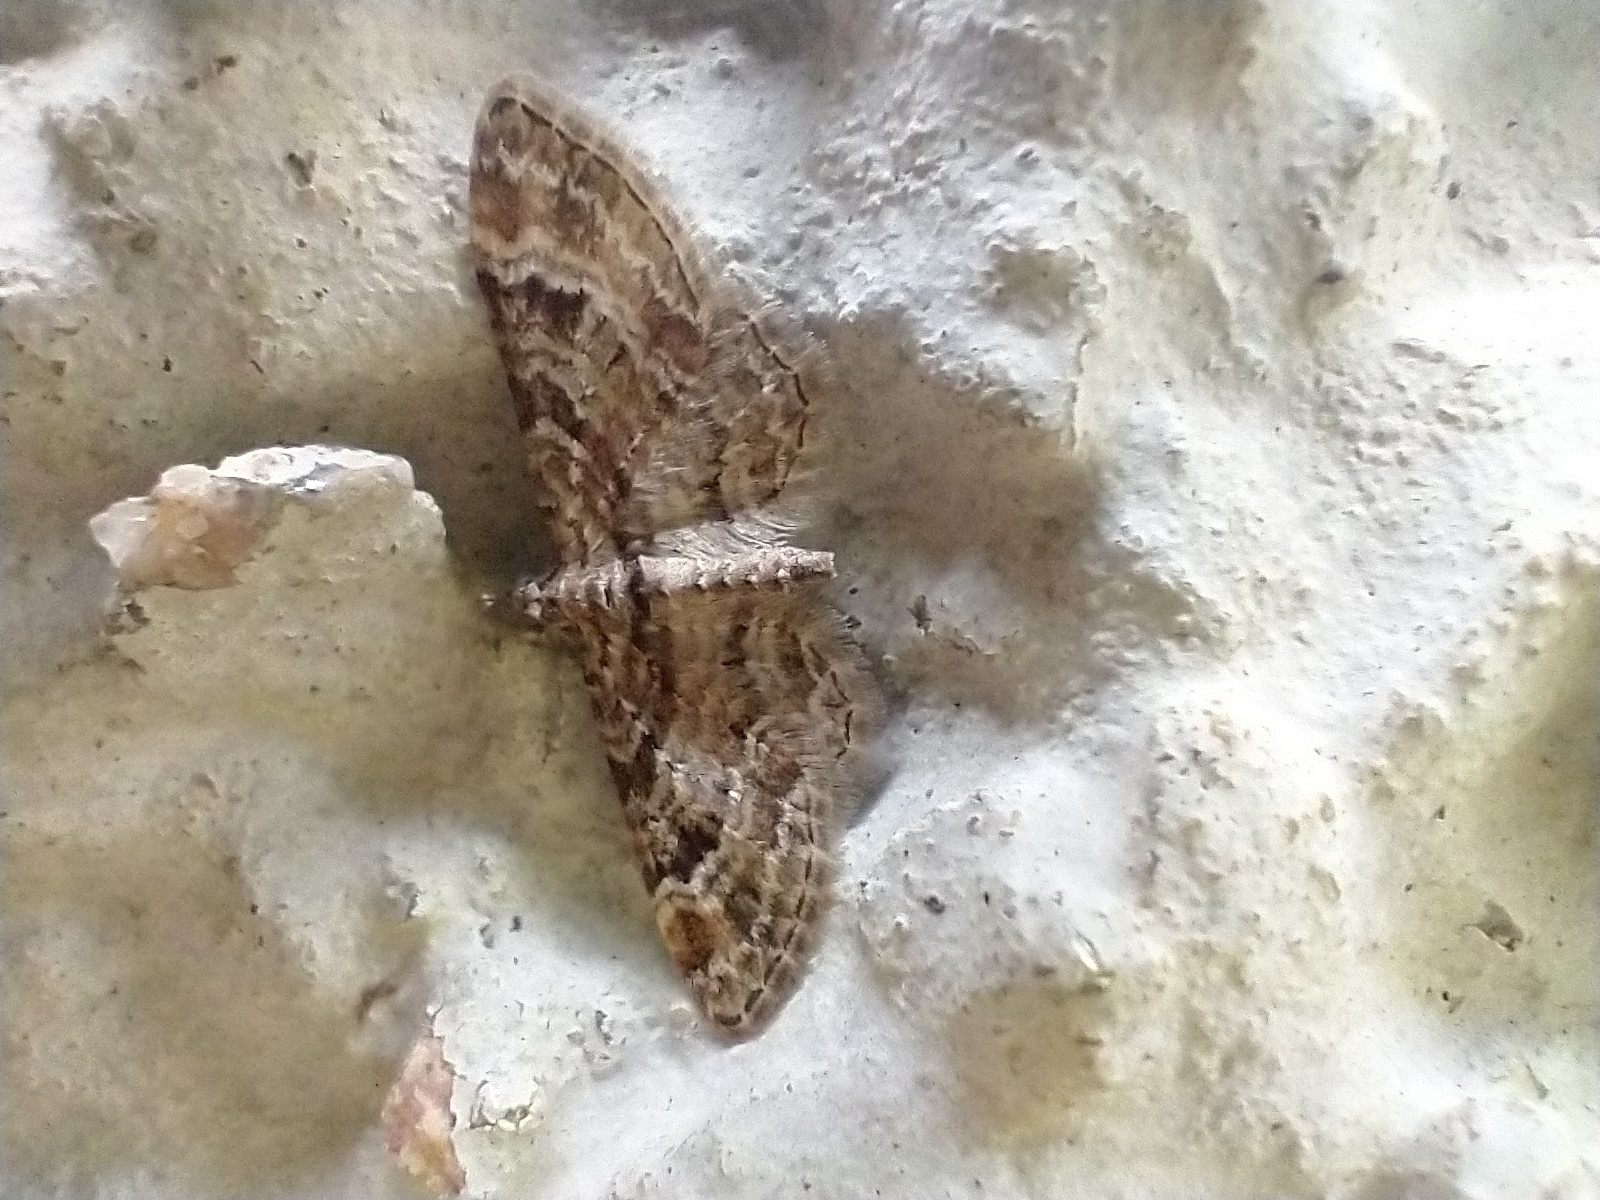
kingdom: Animalia
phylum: Arthropoda
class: Insecta
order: Lepidoptera
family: Geometridae
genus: Gymnoscelis
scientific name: Gymnoscelis rufifasciata
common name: Double-striped pug
